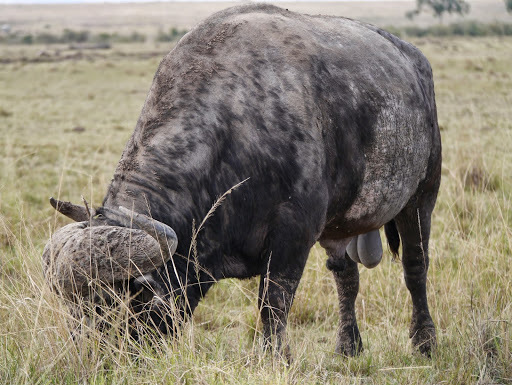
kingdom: Animalia
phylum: Chordata
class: Mammalia
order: Artiodactyla
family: Bovidae
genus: Syncerus
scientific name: Syncerus caffer
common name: African buffalo
